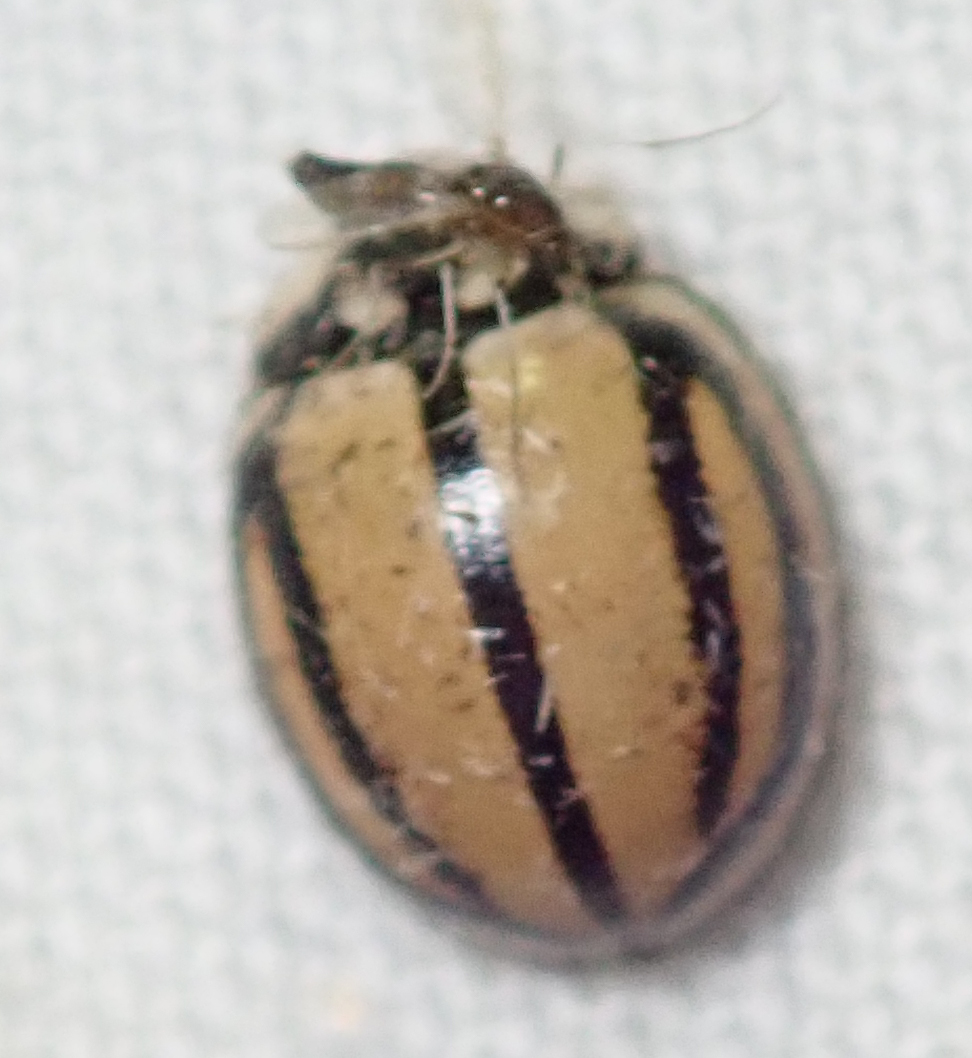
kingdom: Animalia
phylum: Arthropoda
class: Insecta
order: Coleoptera
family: Coccinellidae
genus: Cheilomenes
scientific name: Cheilomenes propinqua
